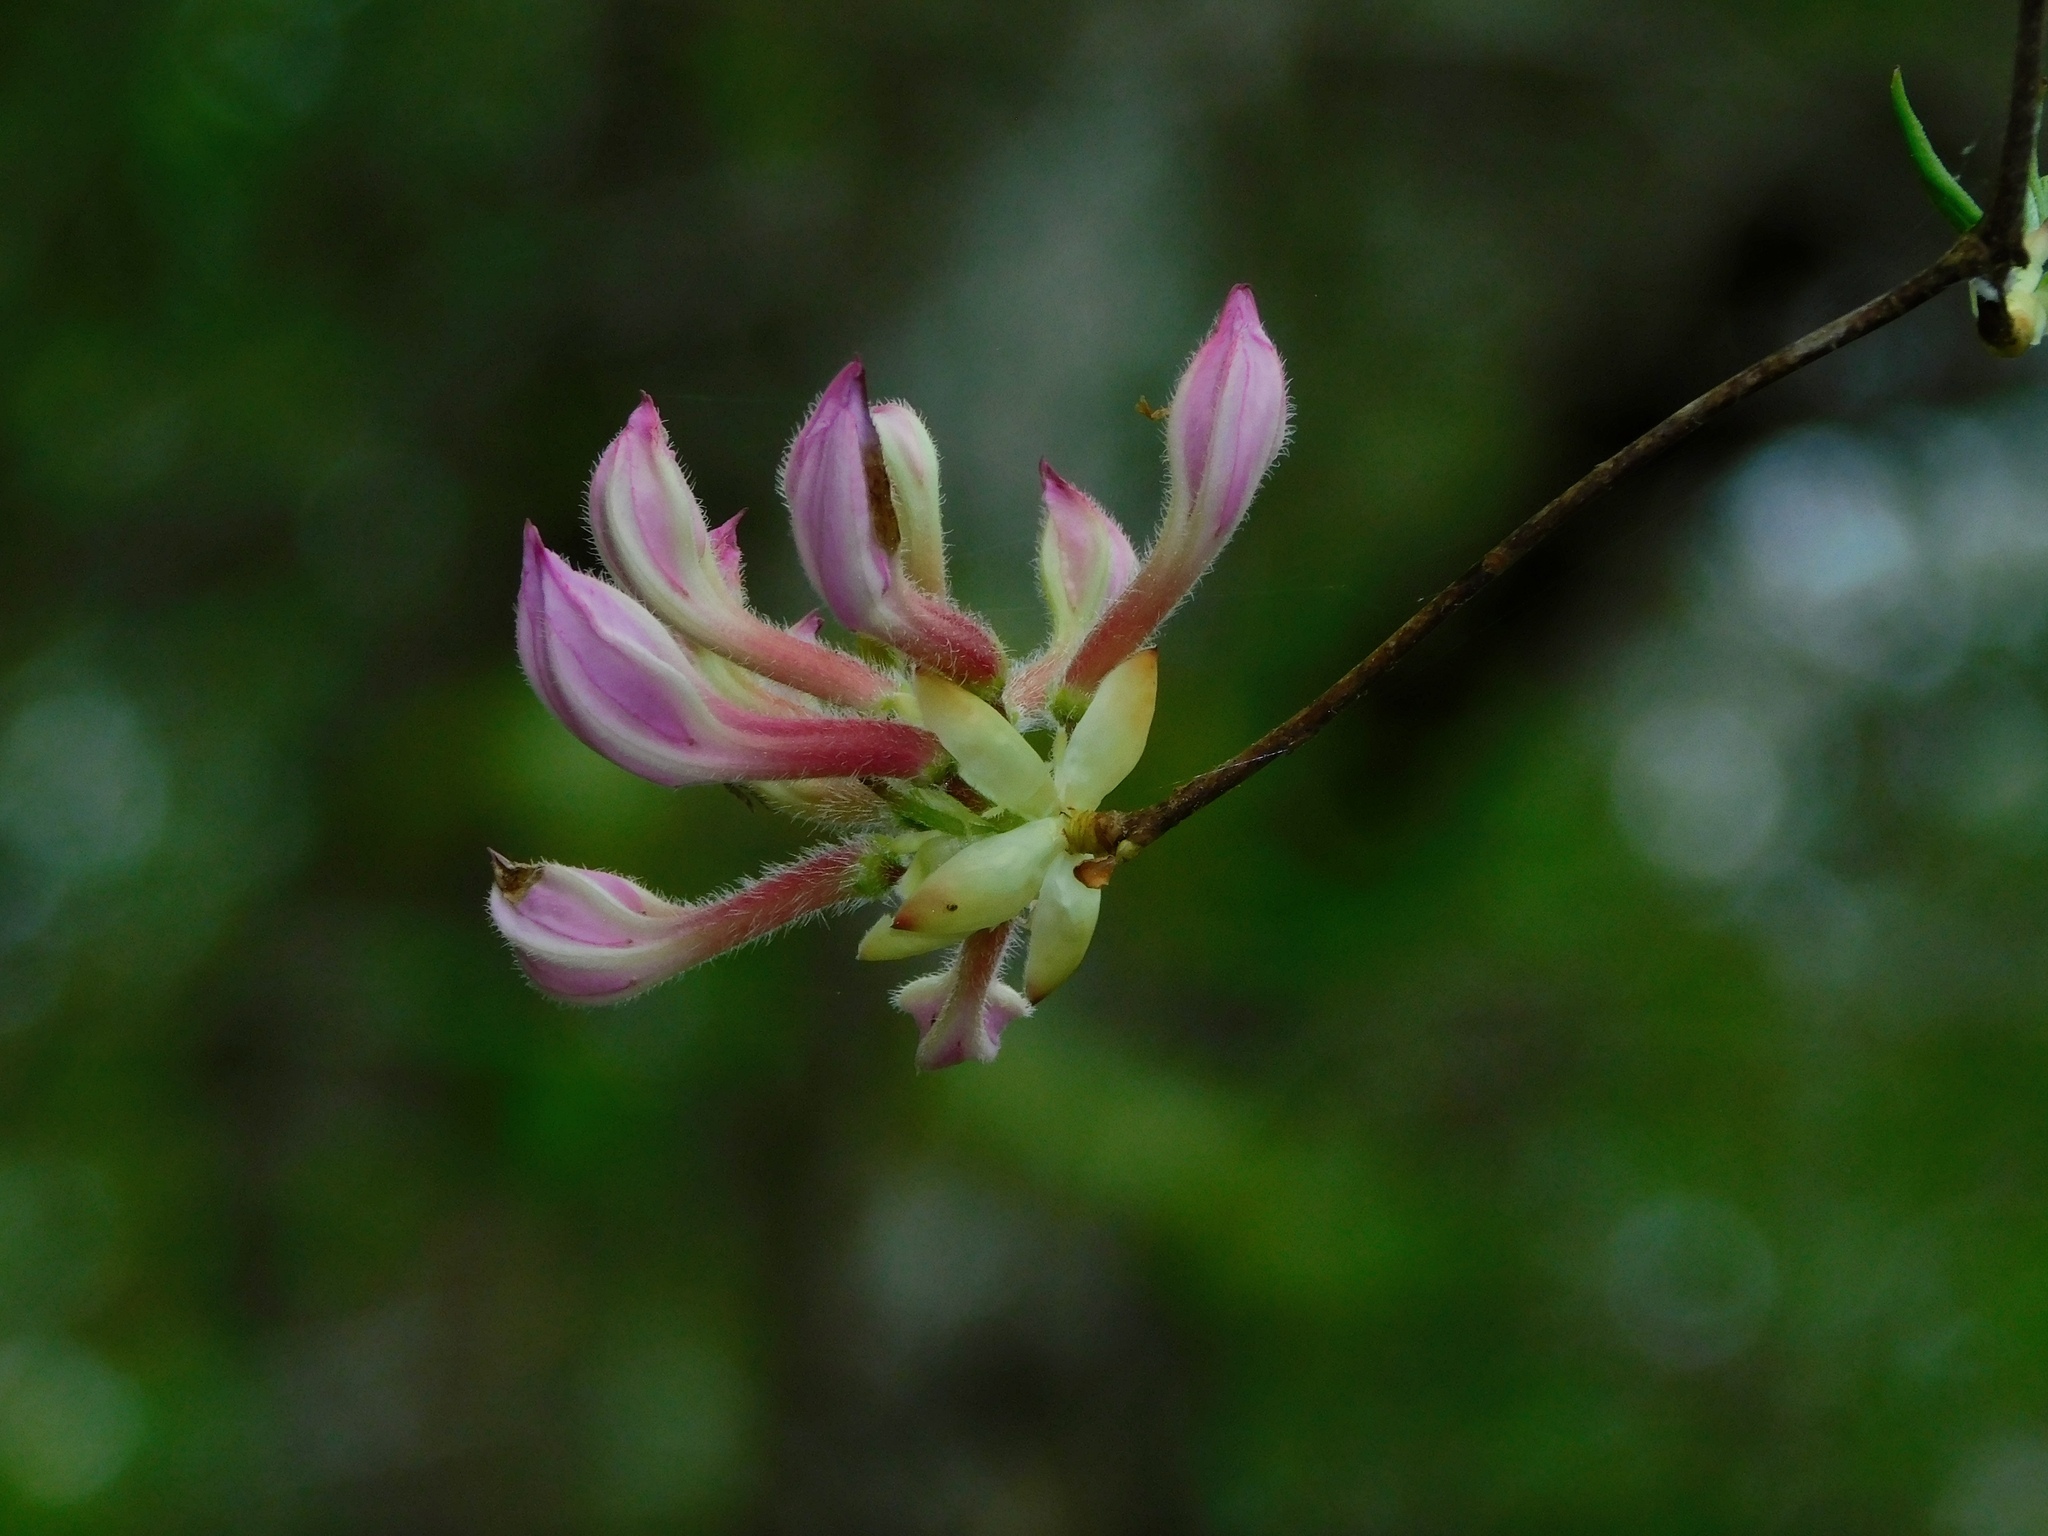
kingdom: Plantae
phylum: Tracheophyta
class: Magnoliopsida
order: Ericales
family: Ericaceae
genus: Rhododendron
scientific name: Rhododendron periclymenoides
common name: Election-pink
